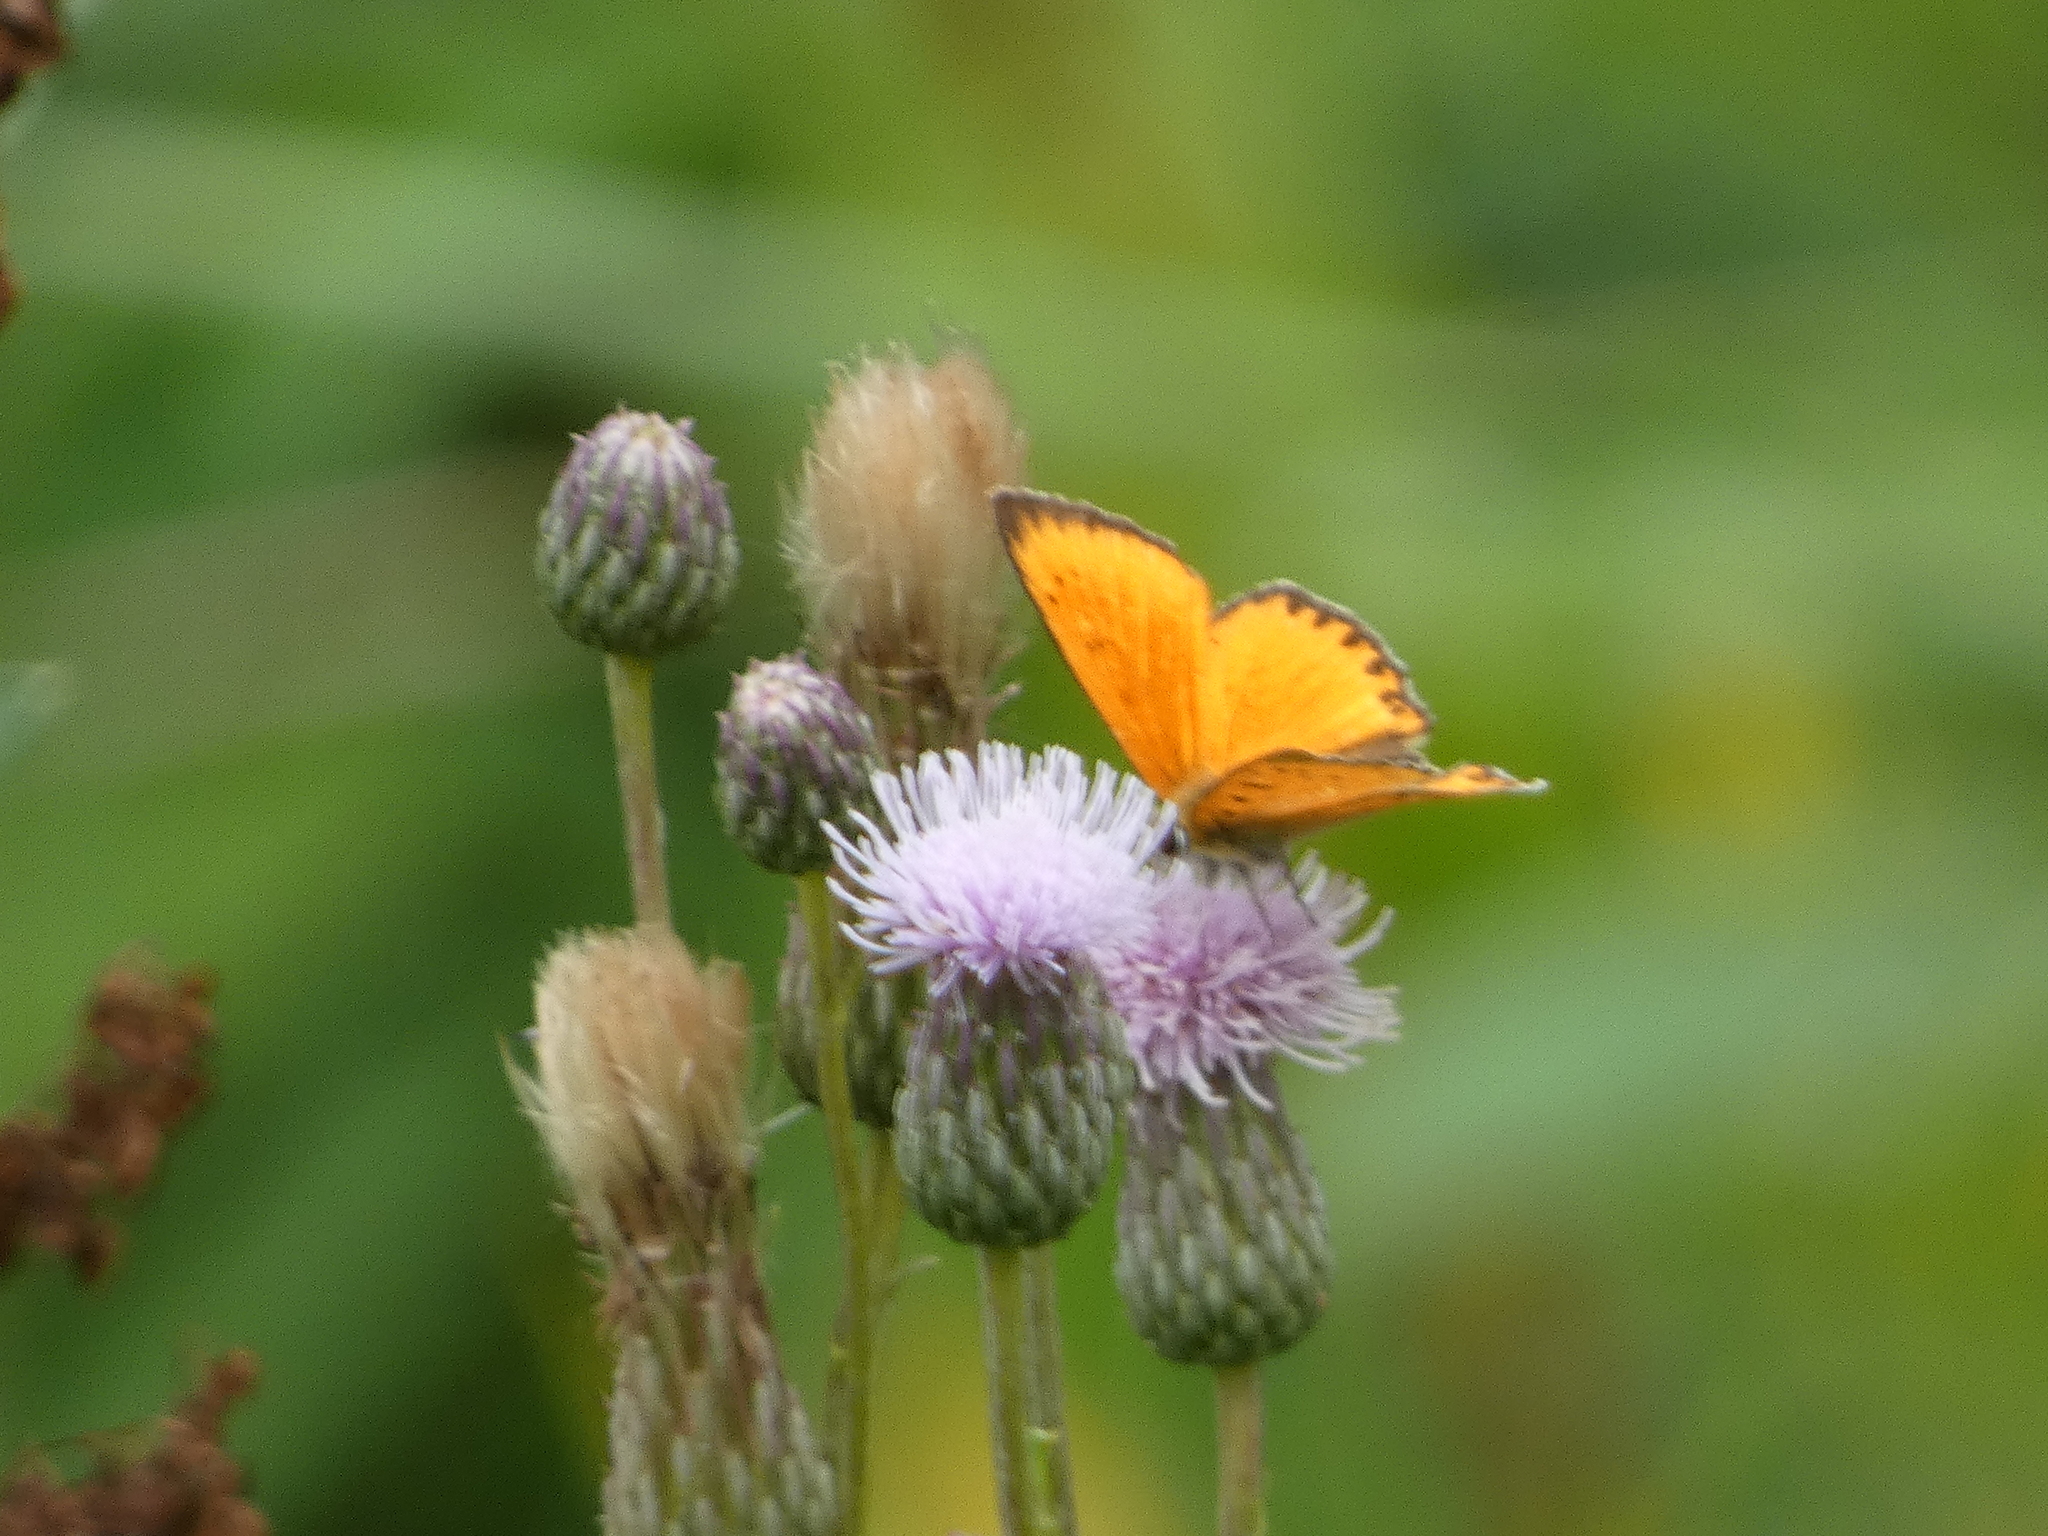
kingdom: Animalia
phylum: Arthropoda
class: Insecta
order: Lepidoptera
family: Lycaenidae
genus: Lycaena
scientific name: Lycaena virgaureae
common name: Scarce copper
